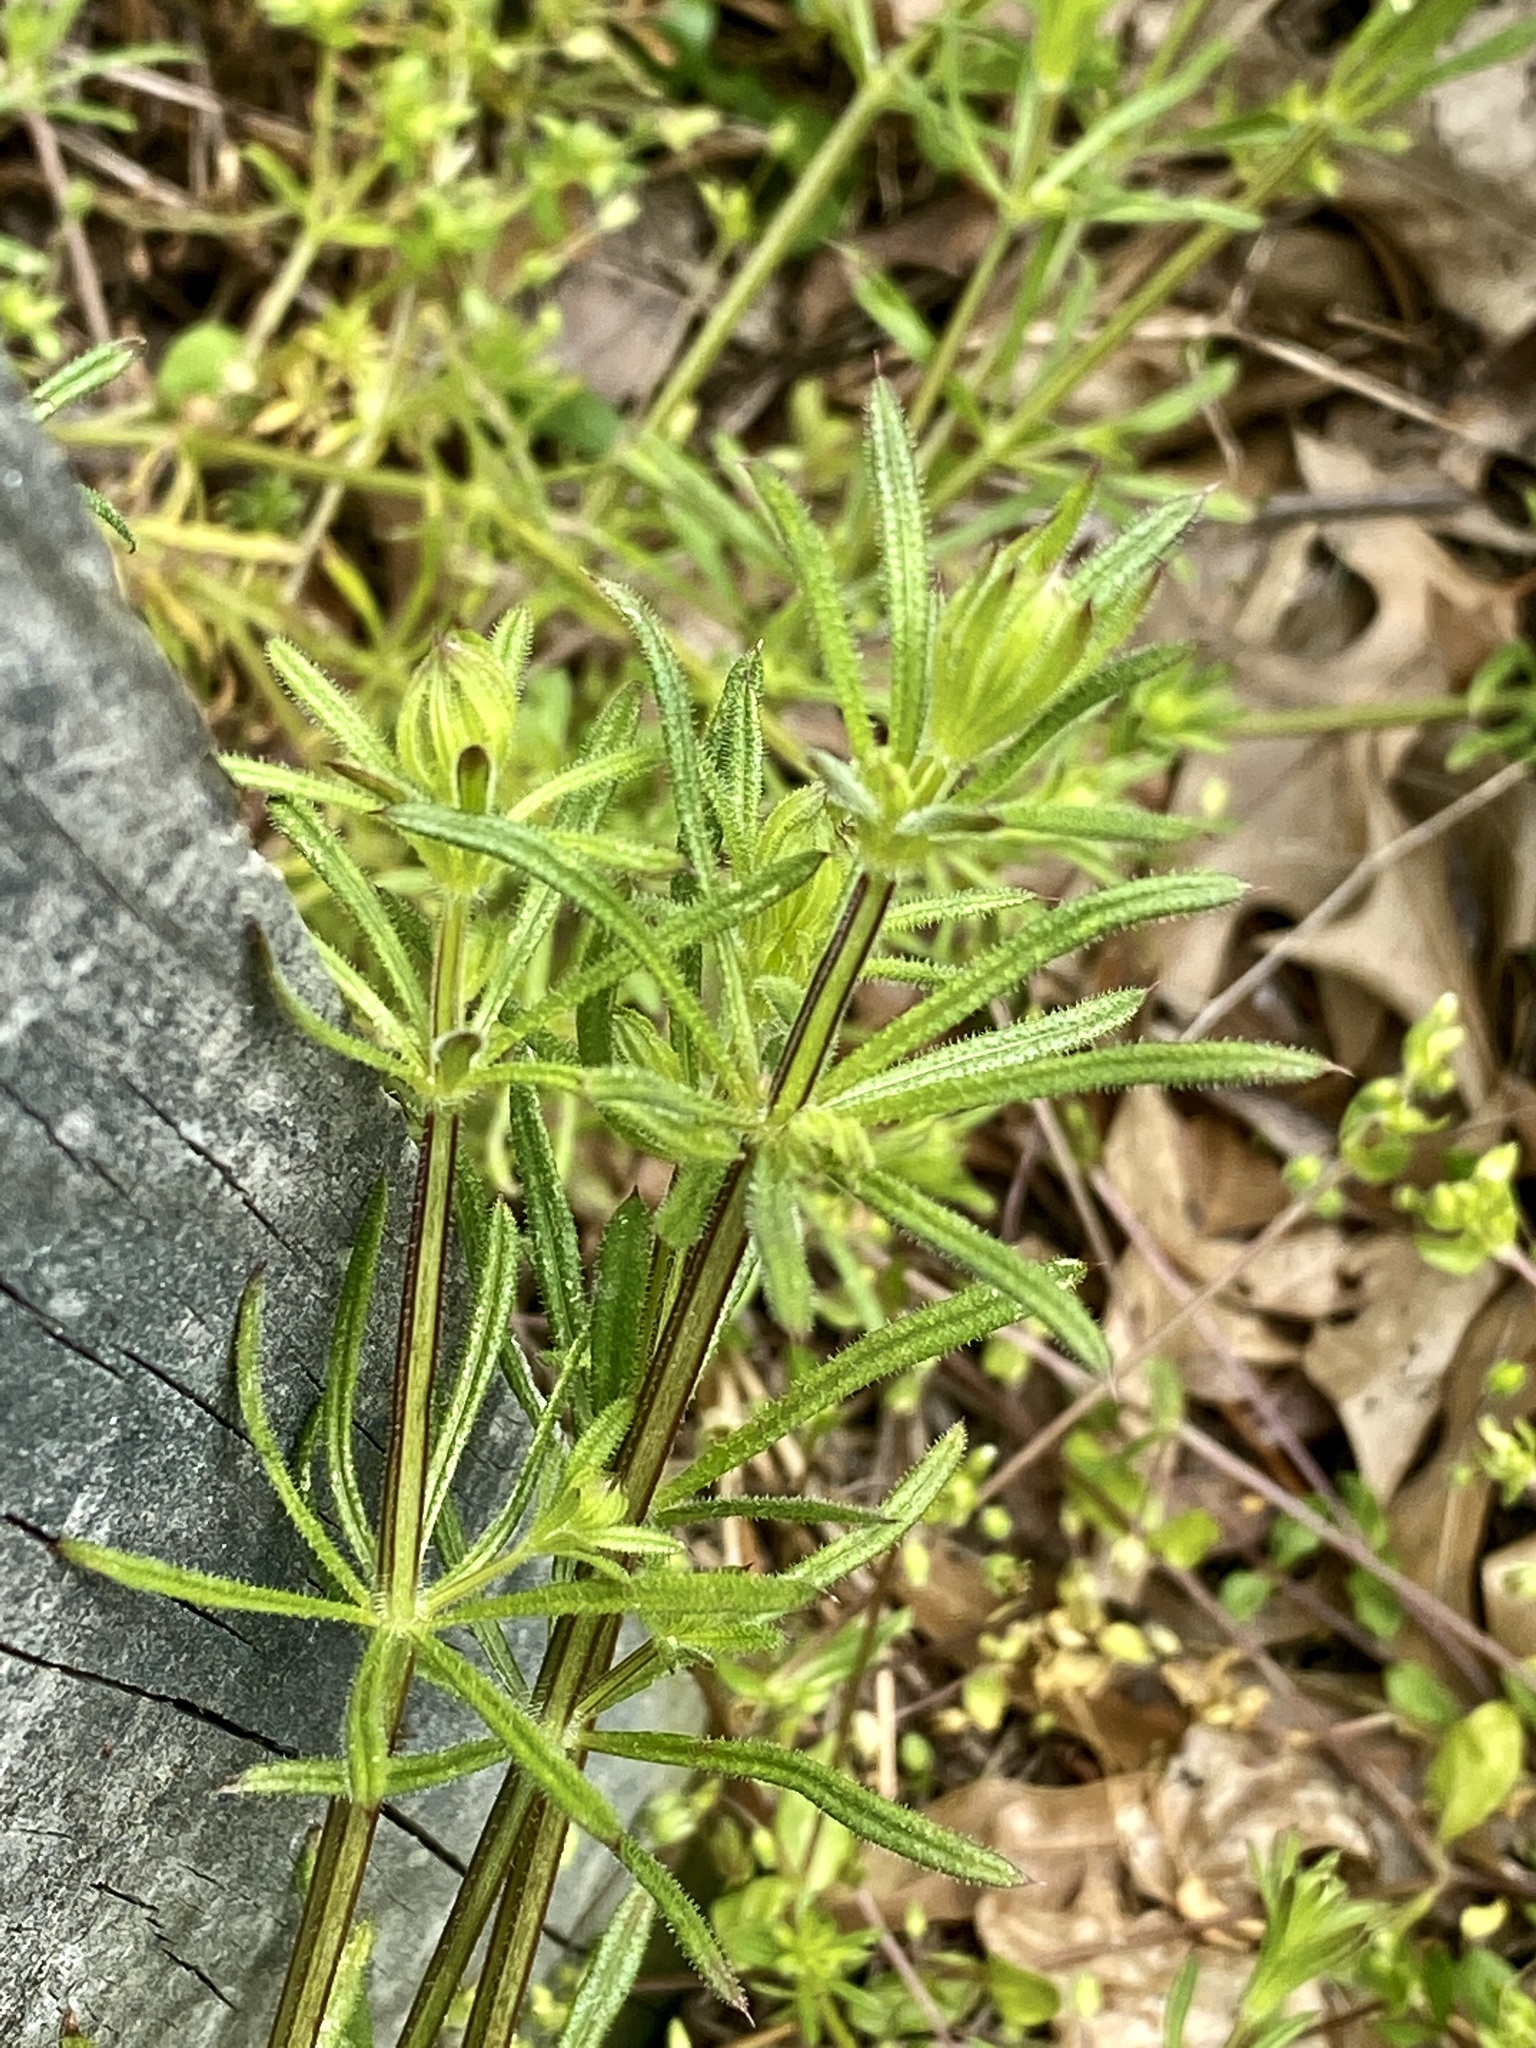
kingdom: Plantae
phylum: Tracheophyta
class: Magnoliopsida
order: Gentianales
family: Rubiaceae
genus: Galium
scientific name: Galium aparine
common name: Cleavers
